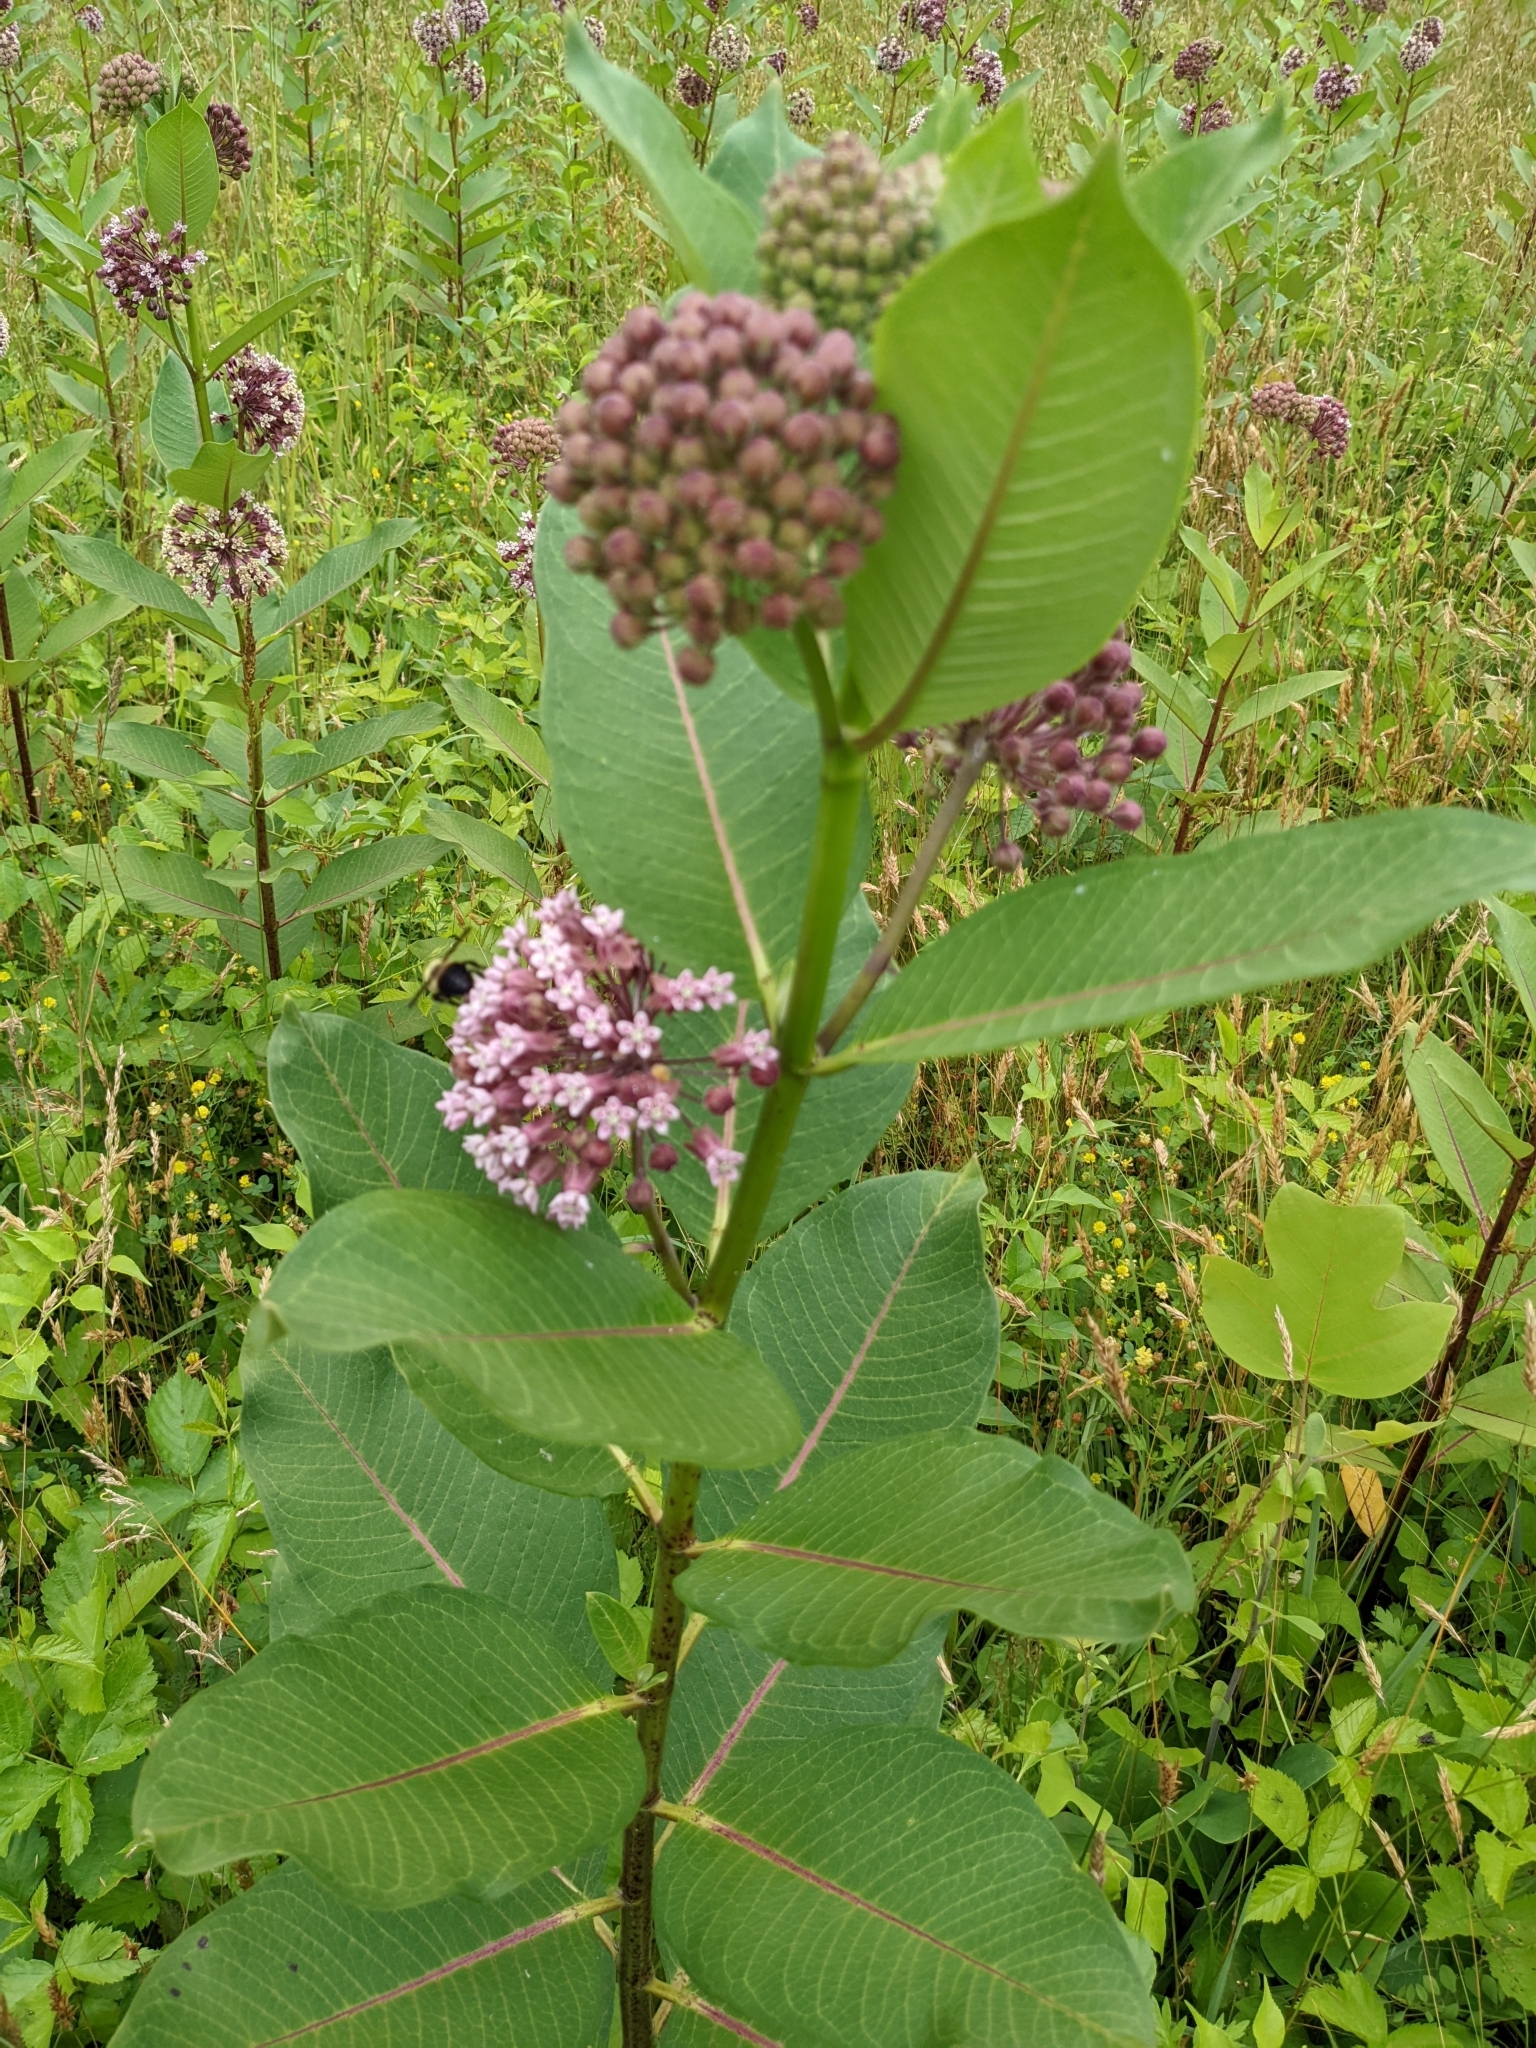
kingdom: Animalia
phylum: Arthropoda
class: Insecta
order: Lepidoptera
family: Nymphalidae
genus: Danaus
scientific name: Danaus plexippus
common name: Monarch
